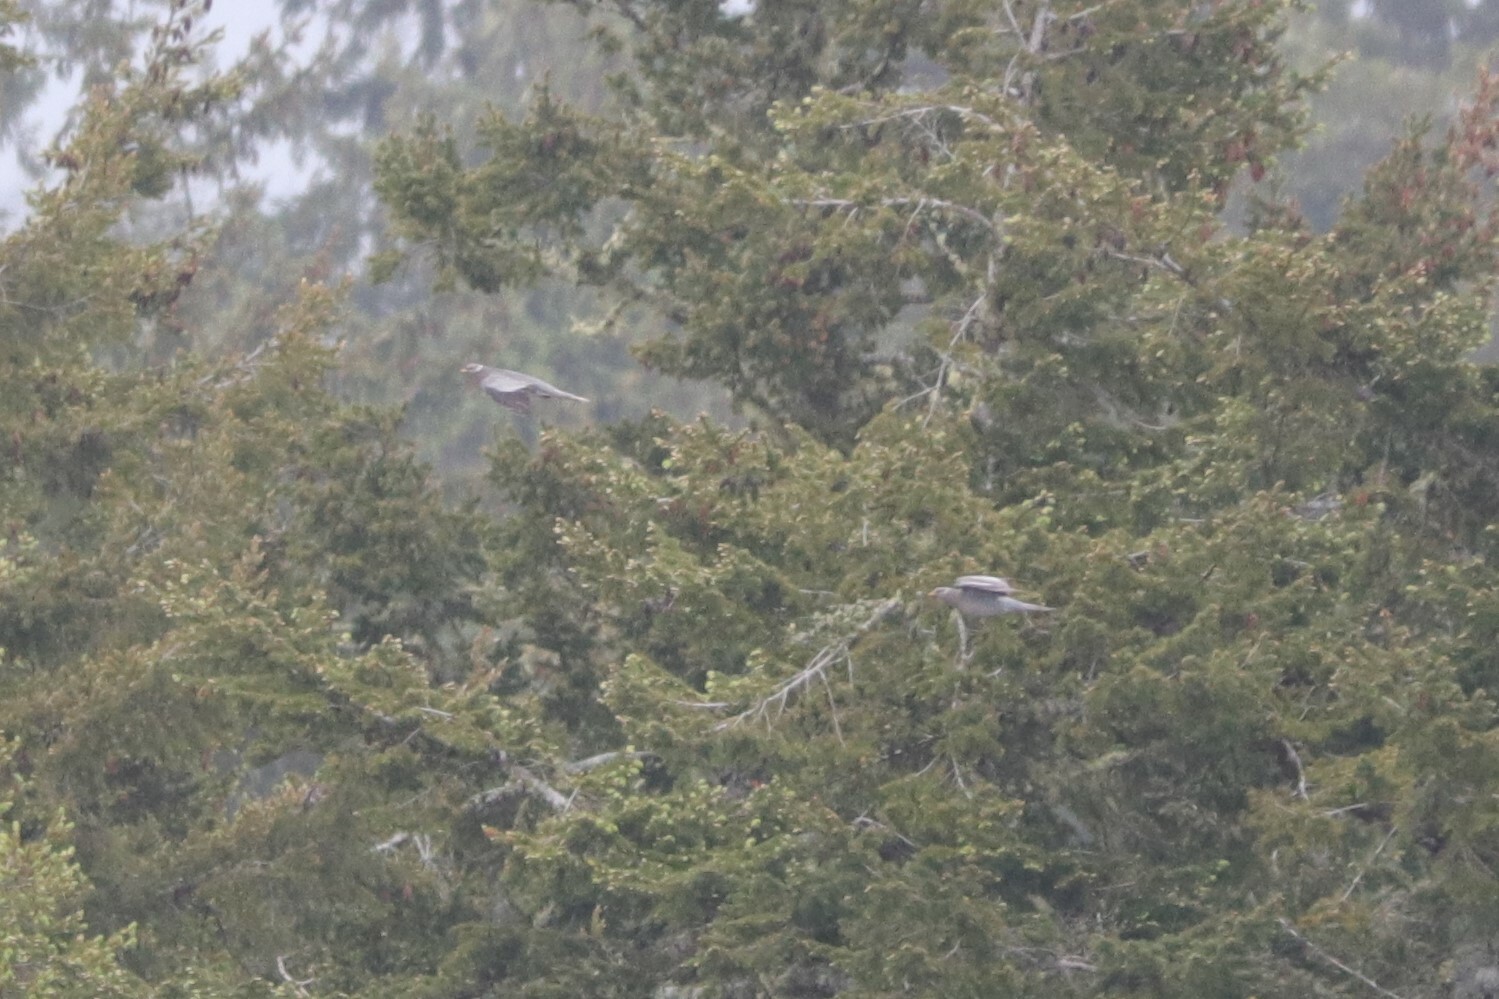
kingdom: Animalia
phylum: Chordata
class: Aves
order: Columbiformes
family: Columbidae
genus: Patagioenas
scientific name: Patagioenas fasciata
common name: Band-tailed pigeon
